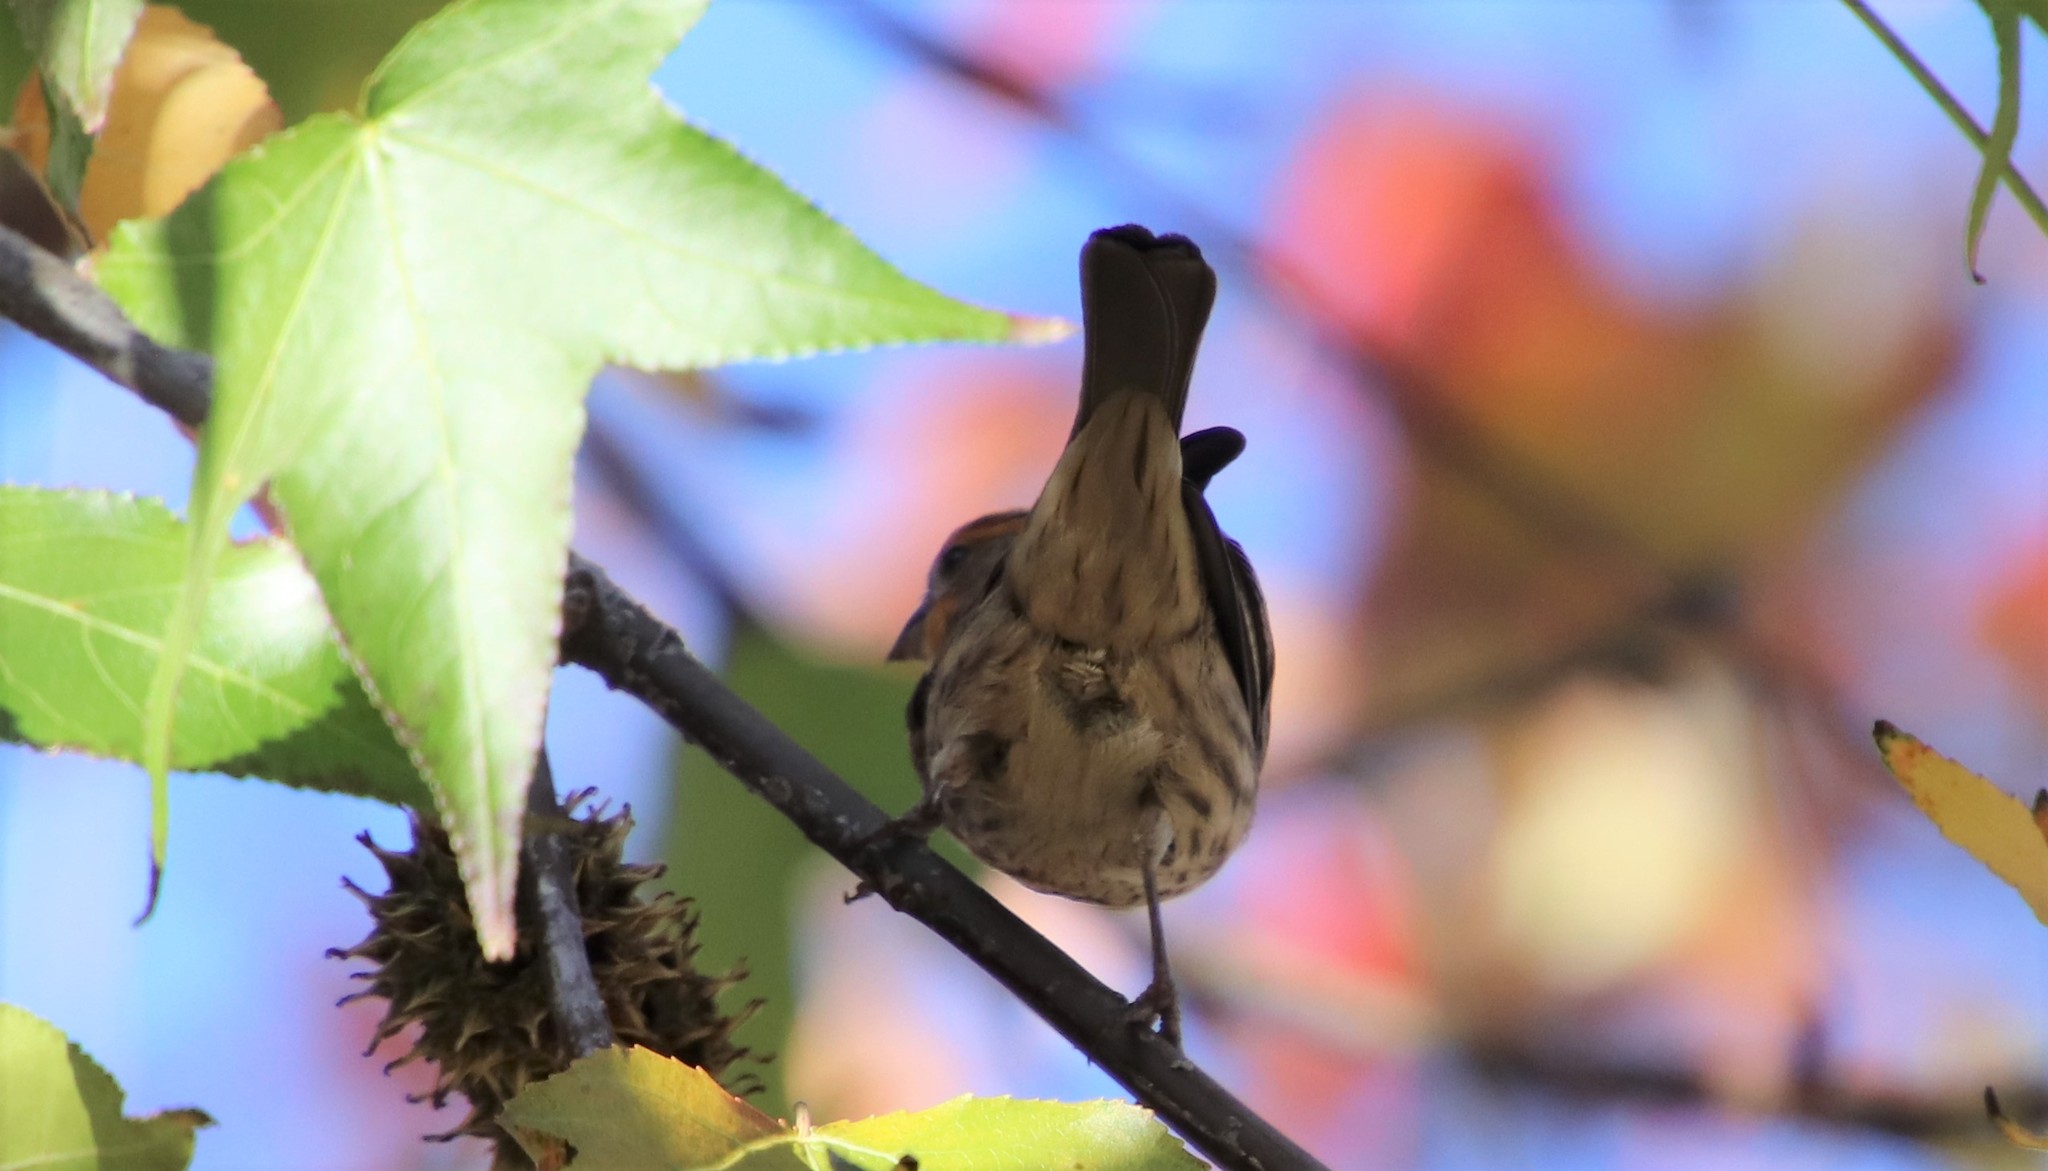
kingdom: Animalia
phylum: Chordata
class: Aves
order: Passeriformes
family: Fringillidae
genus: Haemorhous
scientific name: Haemorhous mexicanus
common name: House finch
